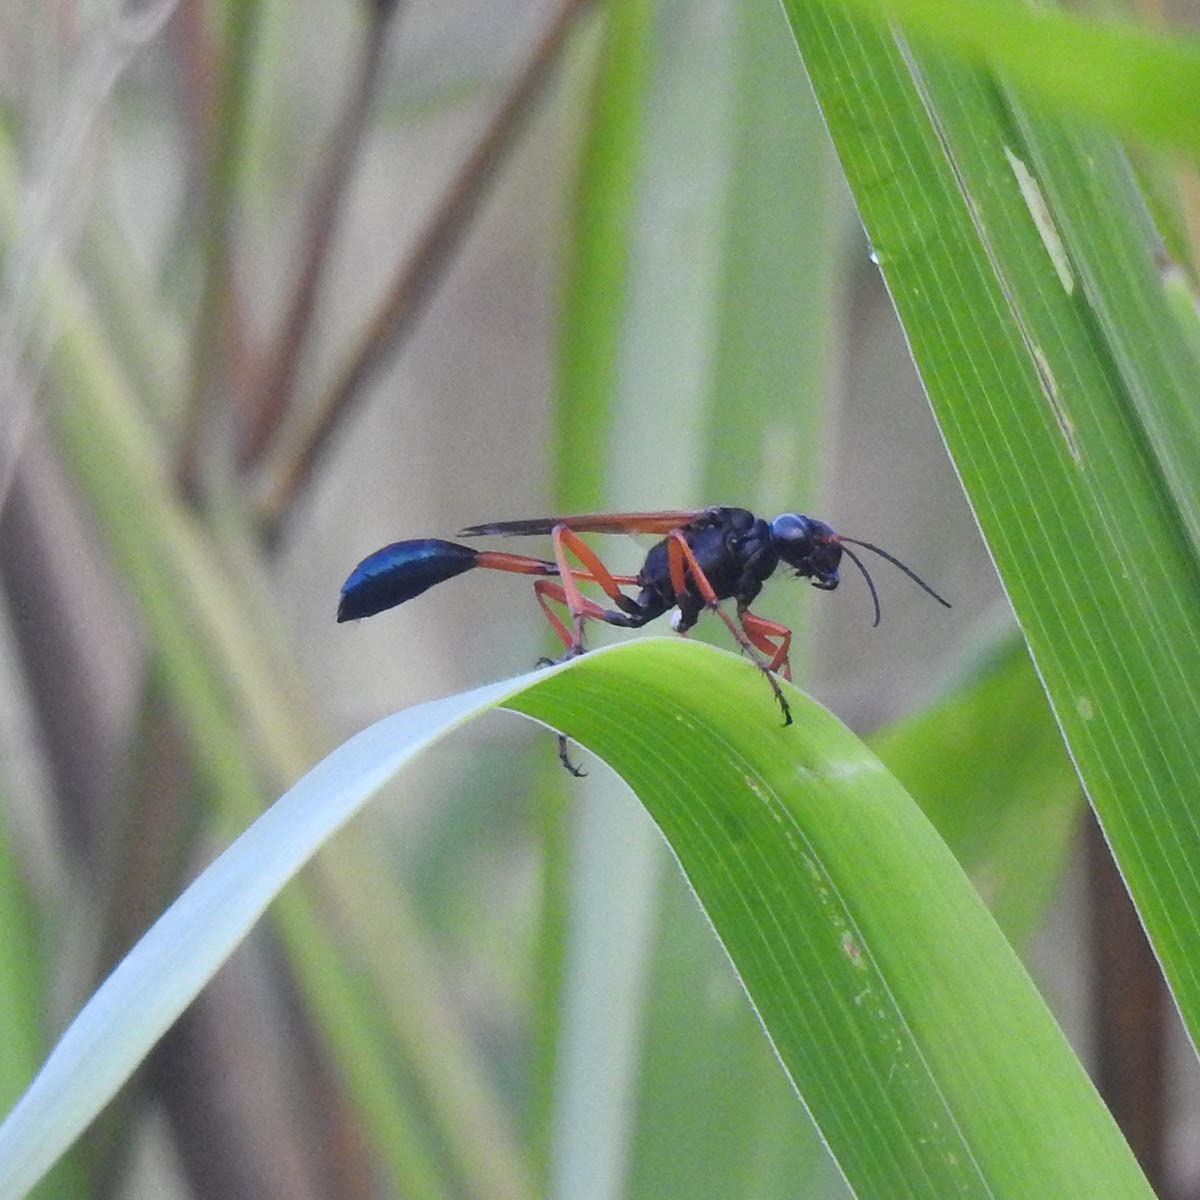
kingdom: Animalia
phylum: Arthropoda
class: Insecta
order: Hymenoptera
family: Sphecidae
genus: Ammophila
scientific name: Ammophila clavus
